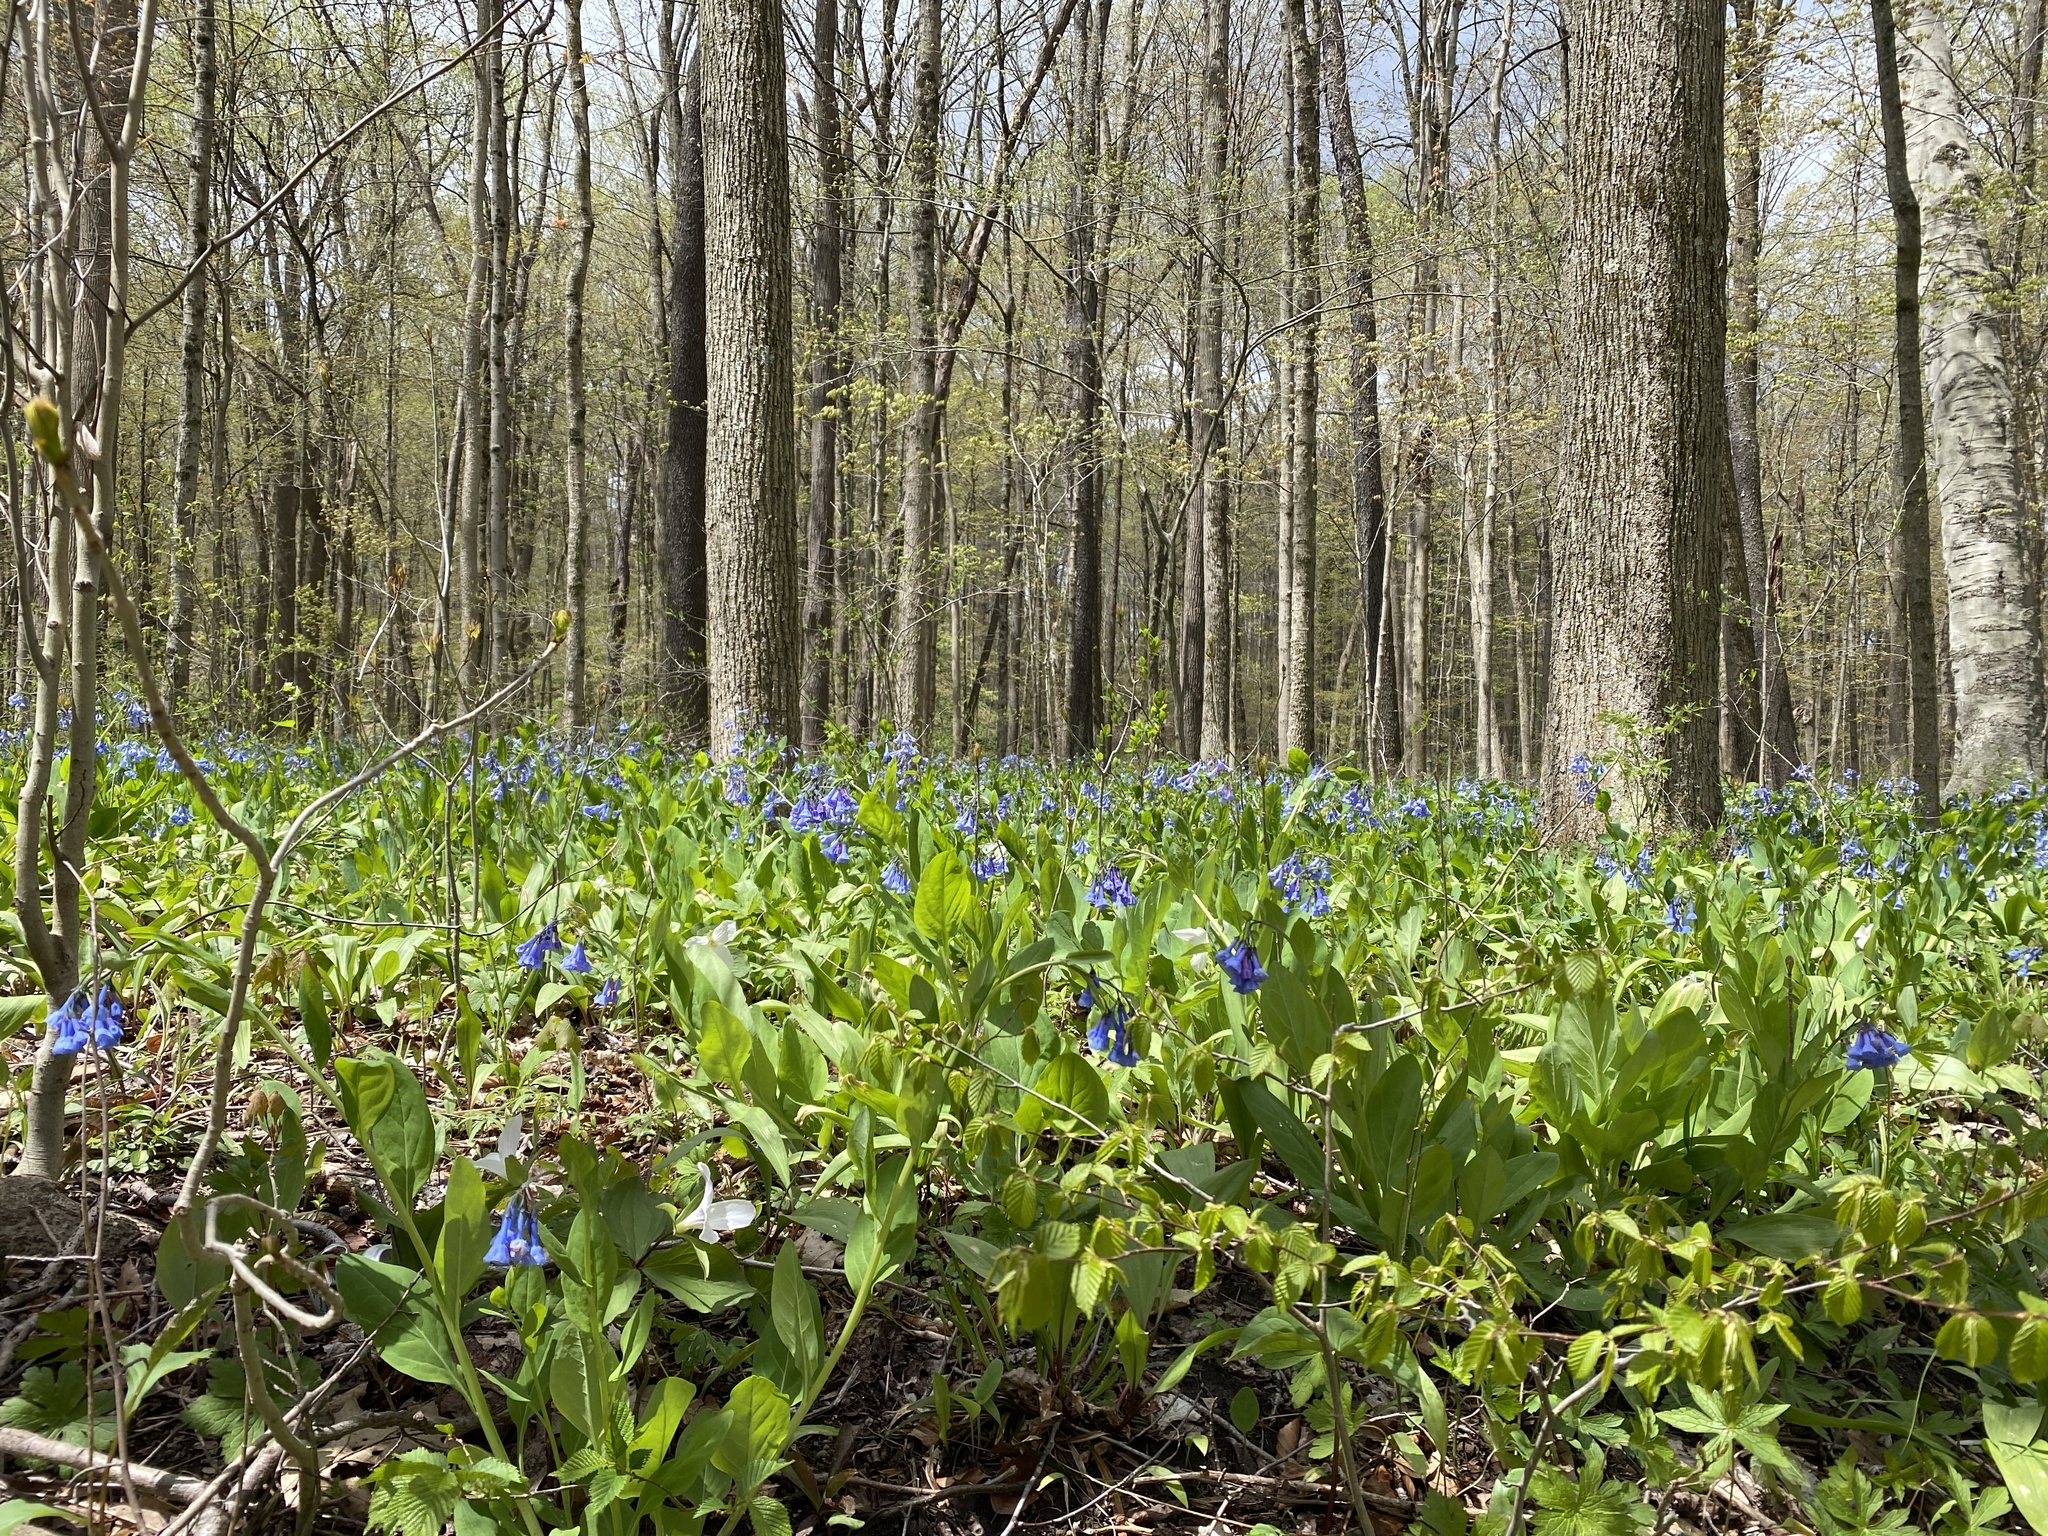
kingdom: Plantae
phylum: Tracheophyta
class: Magnoliopsida
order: Boraginales
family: Boraginaceae
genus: Mertensia
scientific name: Mertensia virginica
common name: Virginia bluebells
